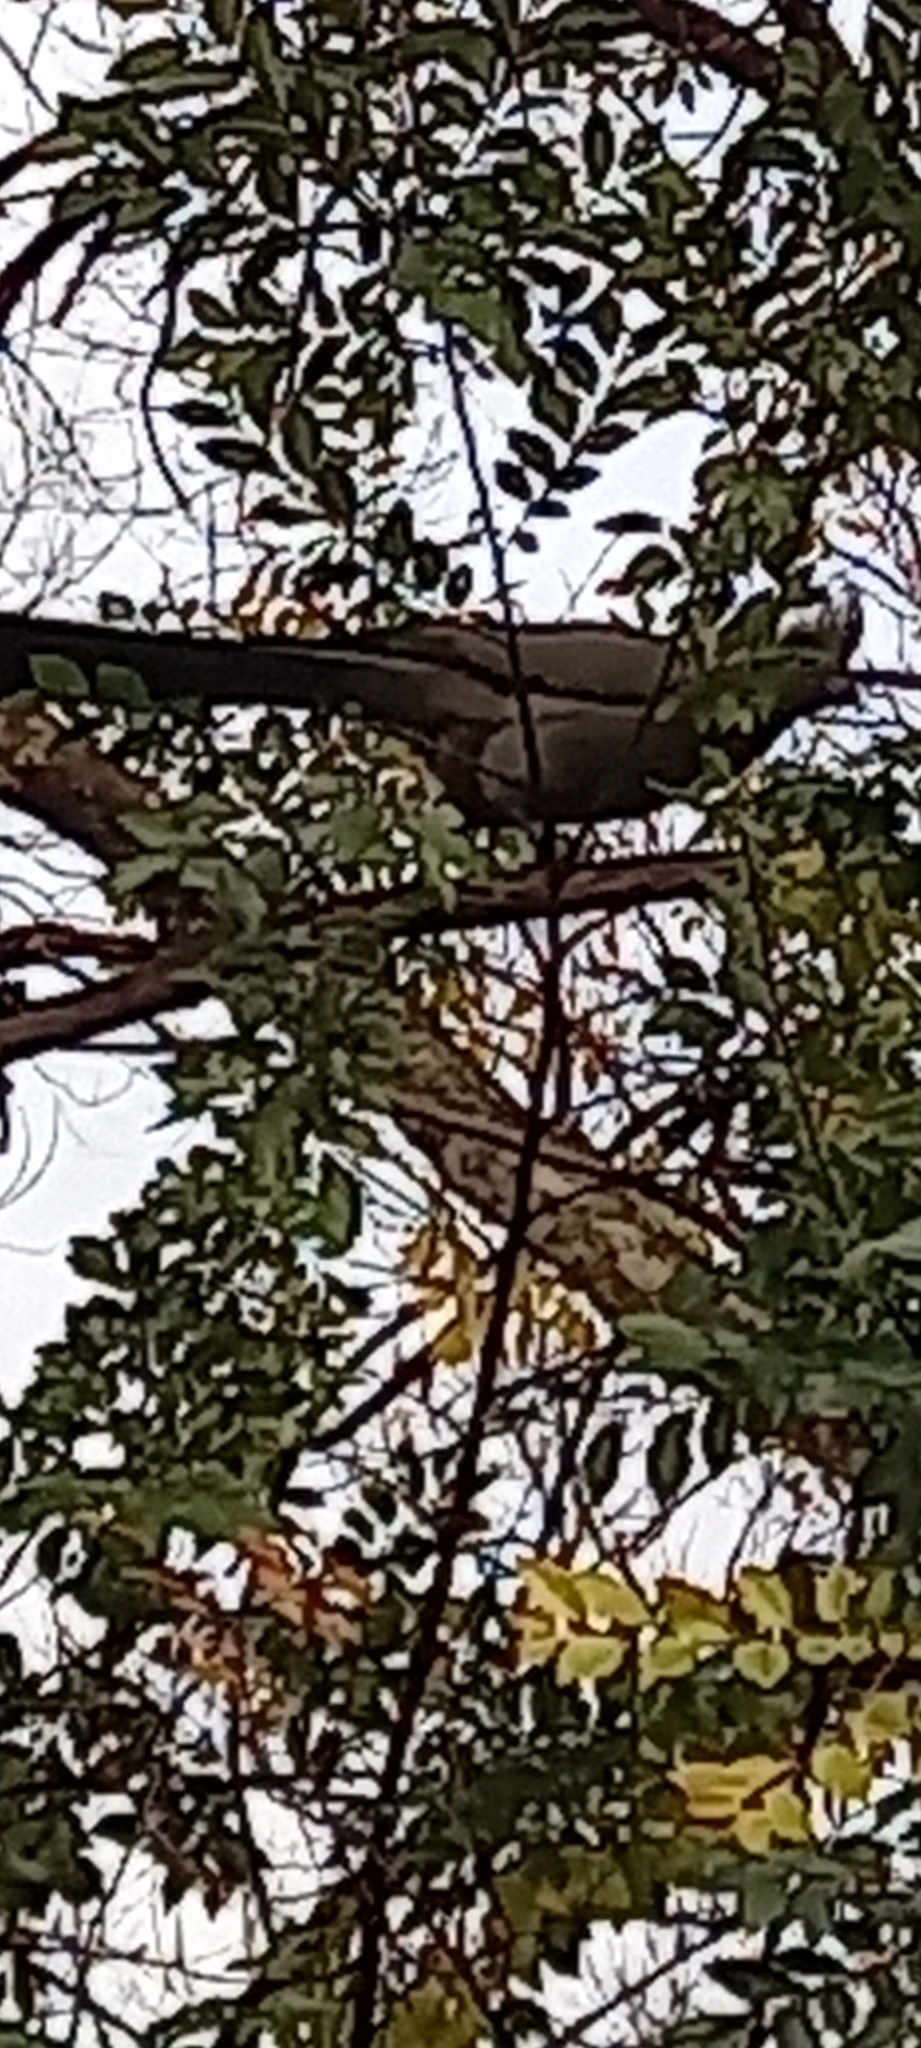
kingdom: Animalia
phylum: Chordata
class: Aves
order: Musophagiformes
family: Musophagidae
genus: Corythaixoides
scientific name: Corythaixoides concolor
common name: Grey go-away-bird
